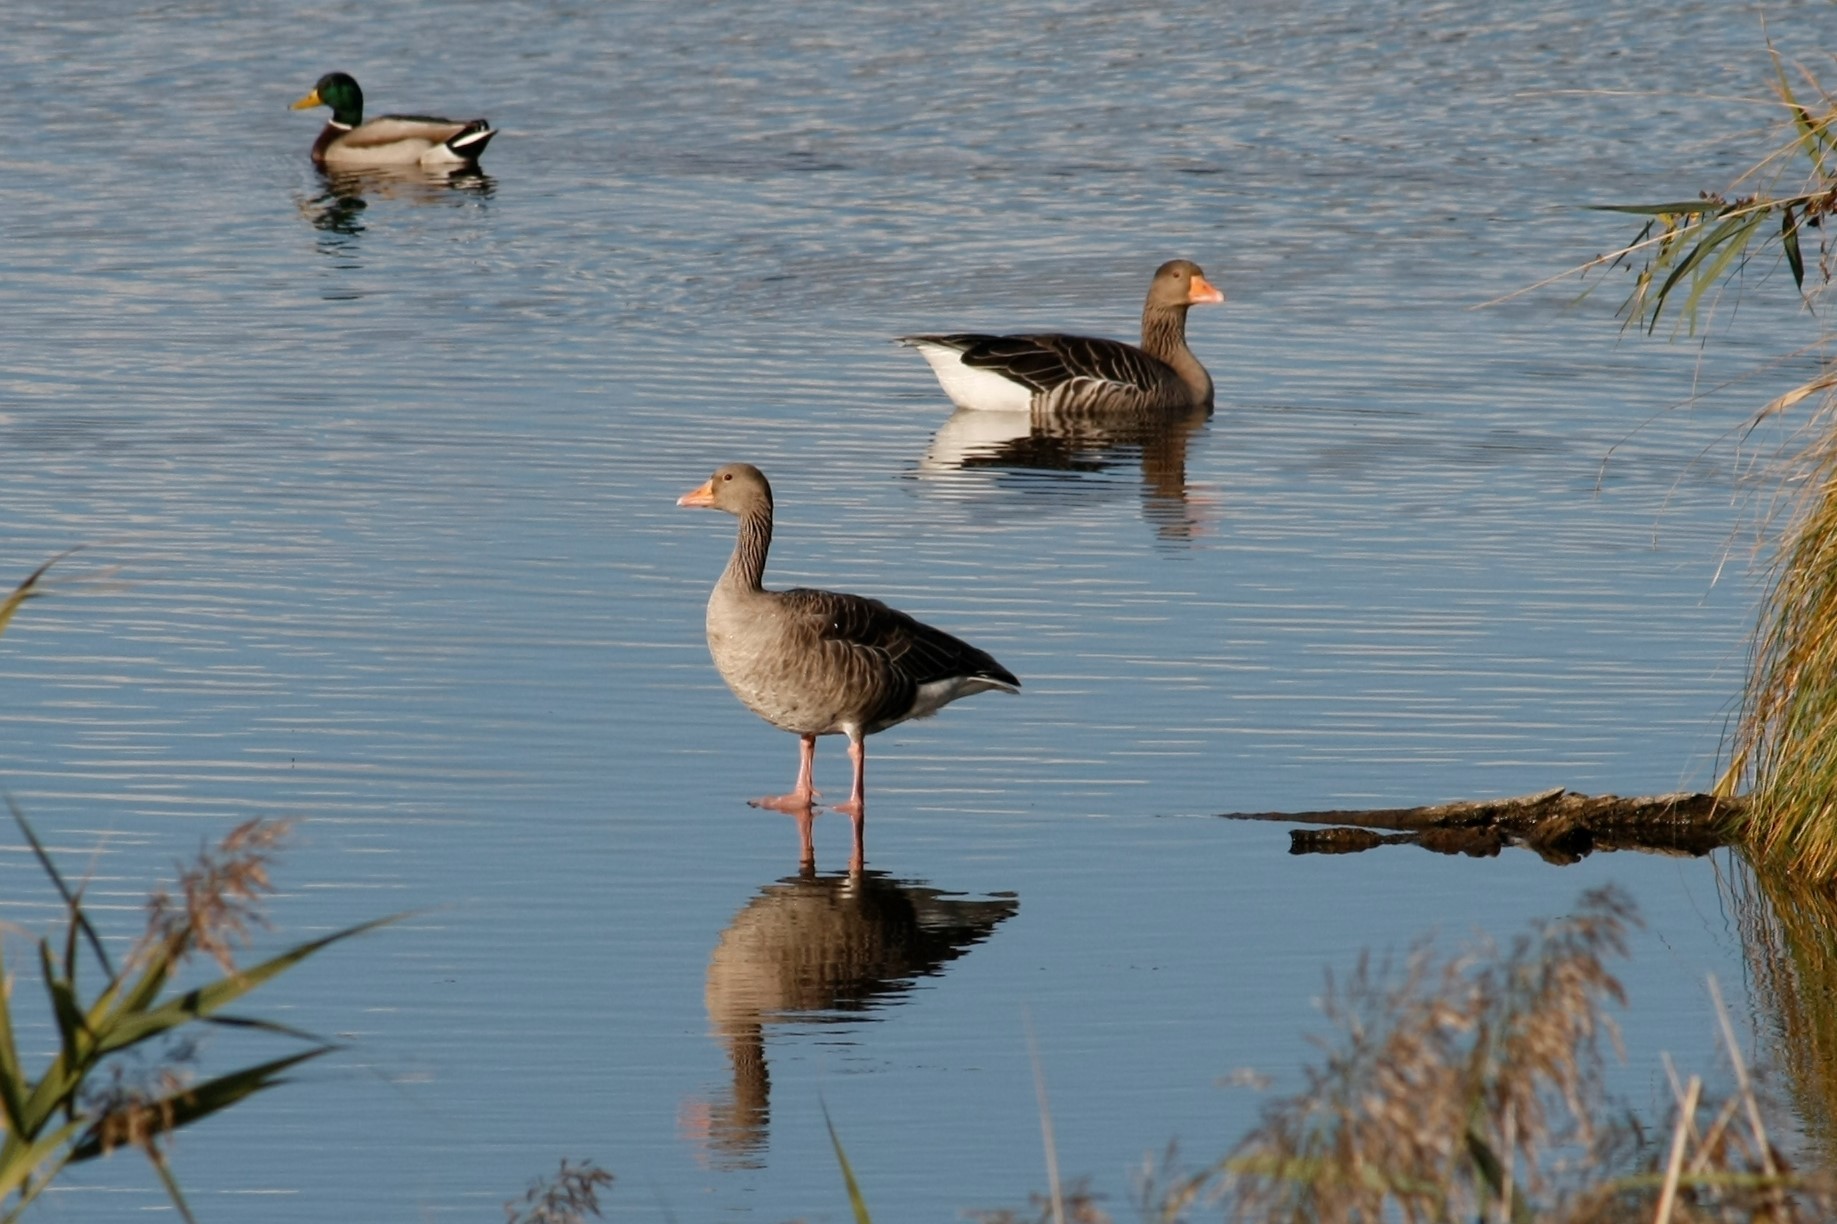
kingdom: Animalia
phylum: Chordata
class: Aves
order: Anseriformes
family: Anatidae
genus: Anser
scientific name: Anser anser
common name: Greylag goose
